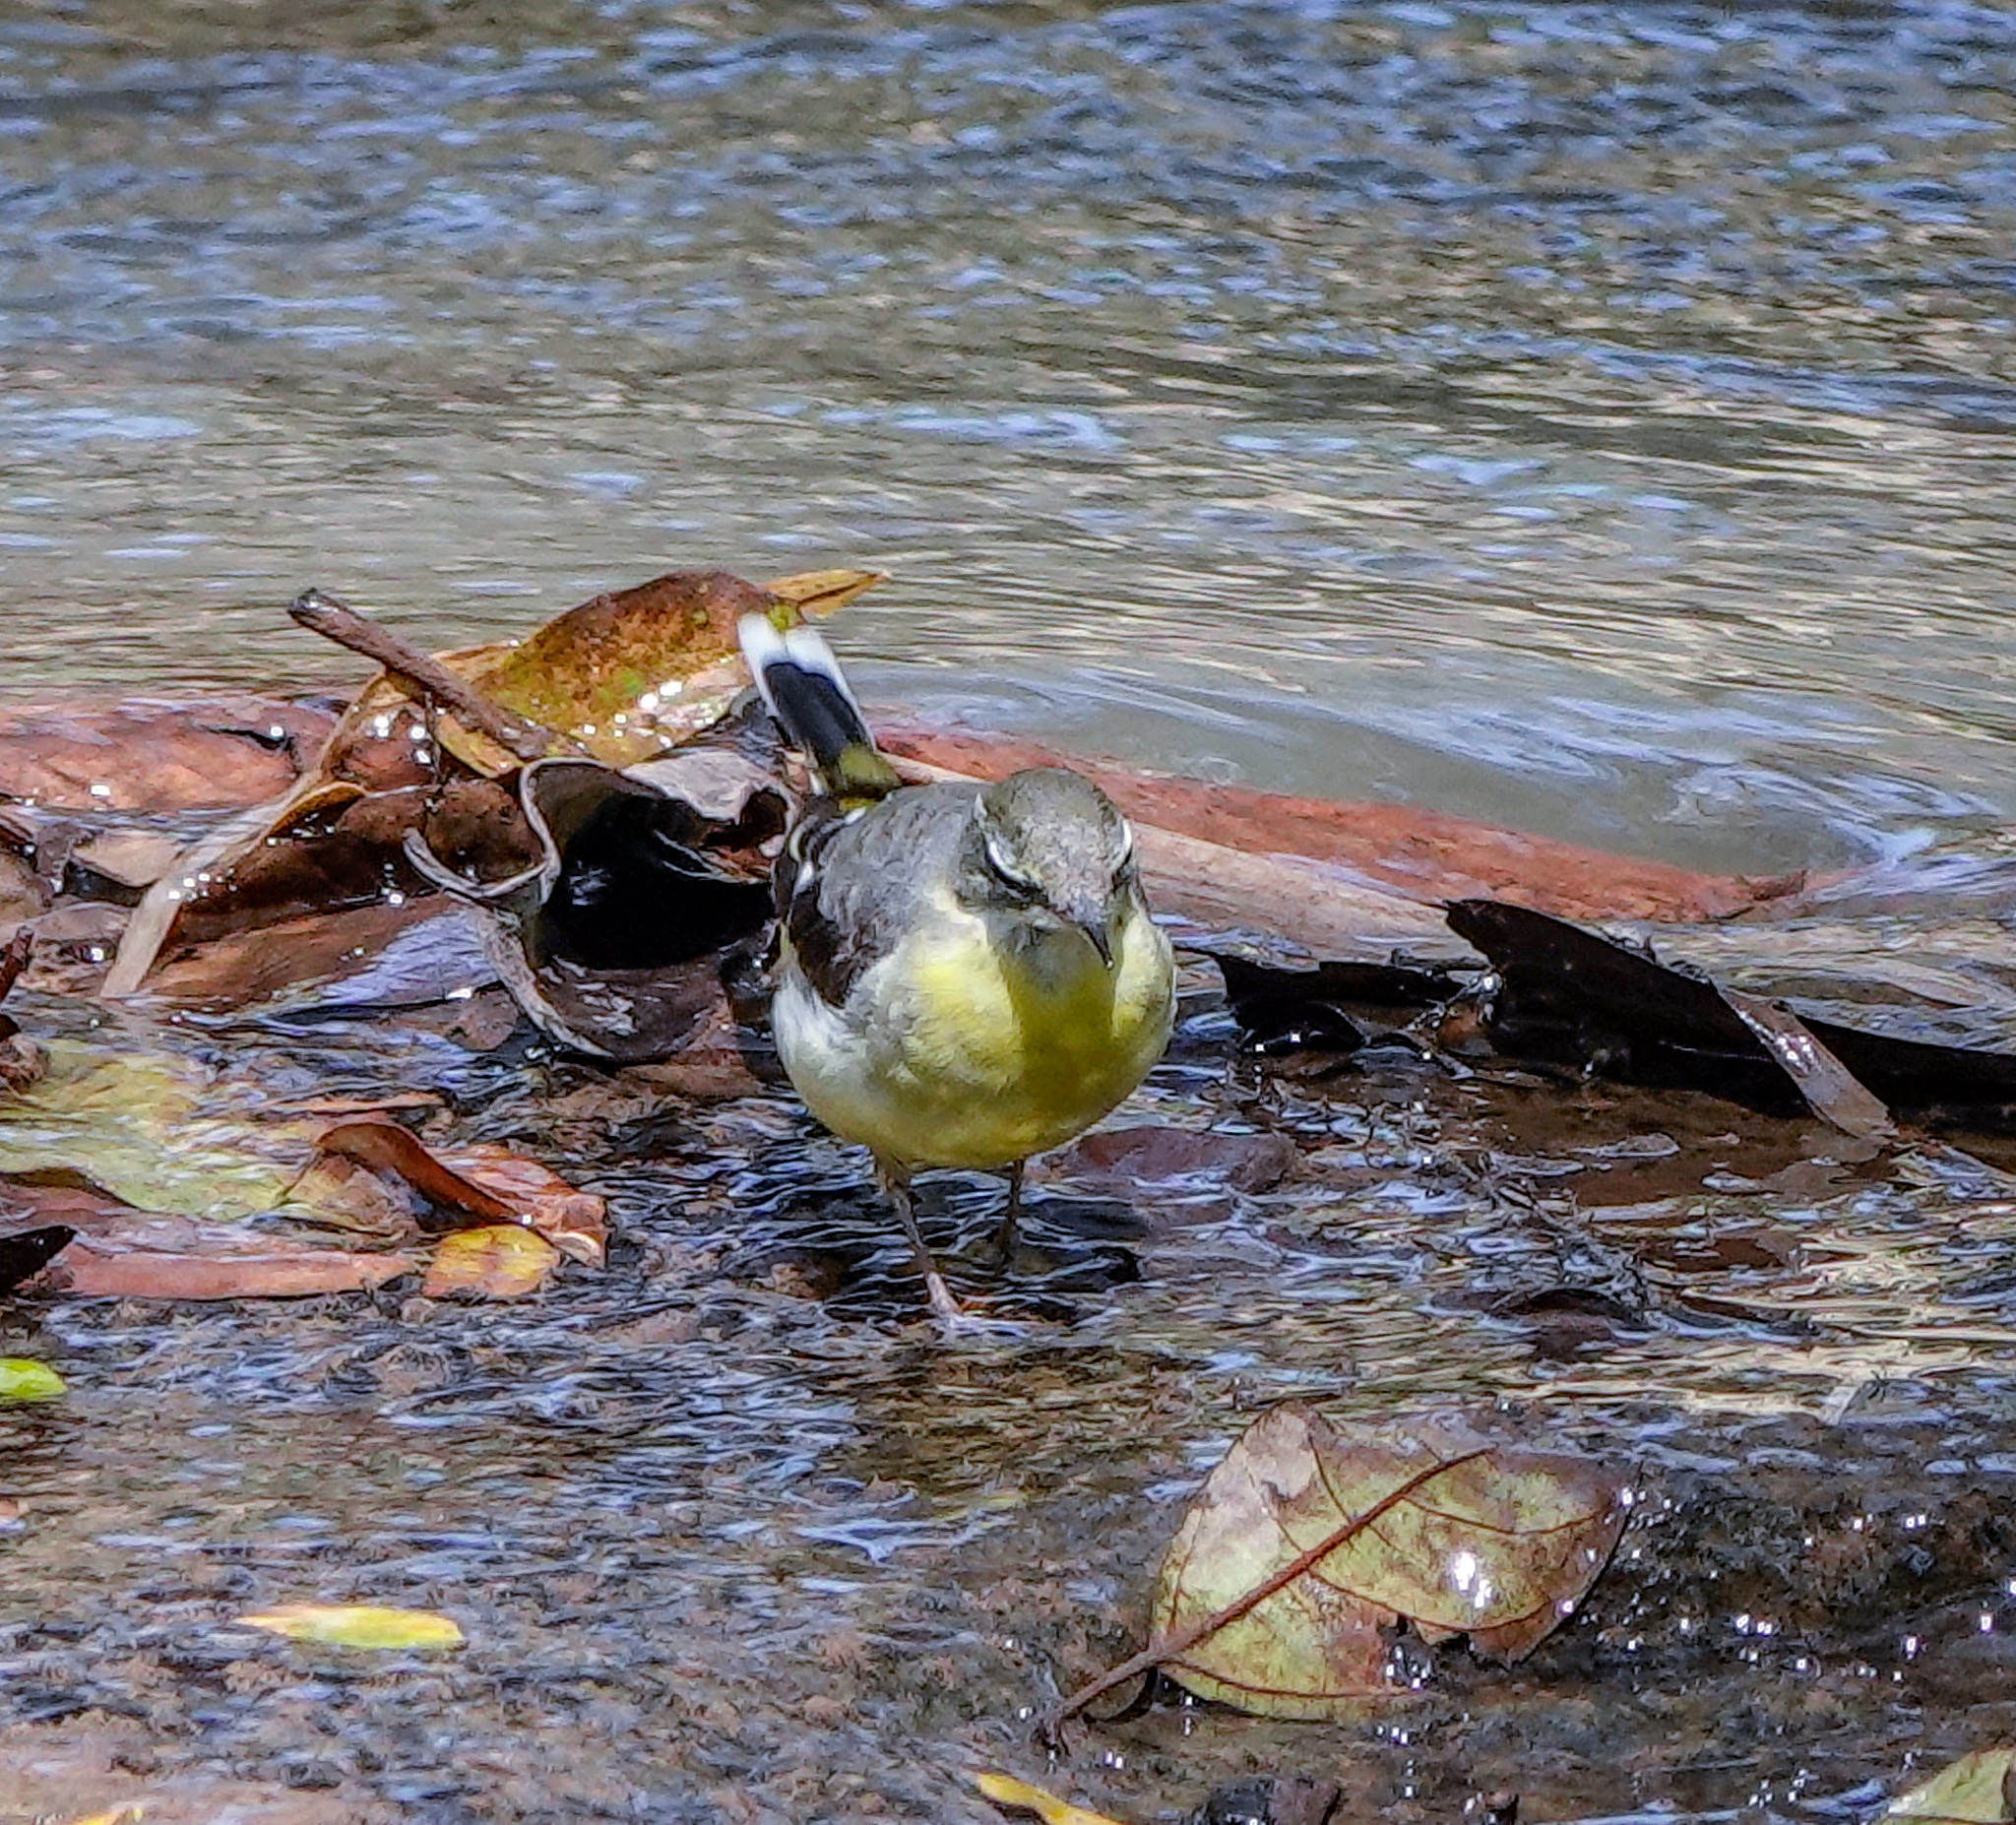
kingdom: Animalia
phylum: Chordata
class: Aves
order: Passeriformes
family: Motacillidae
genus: Motacilla
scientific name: Motacilla cinerea
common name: Grey wagtail
